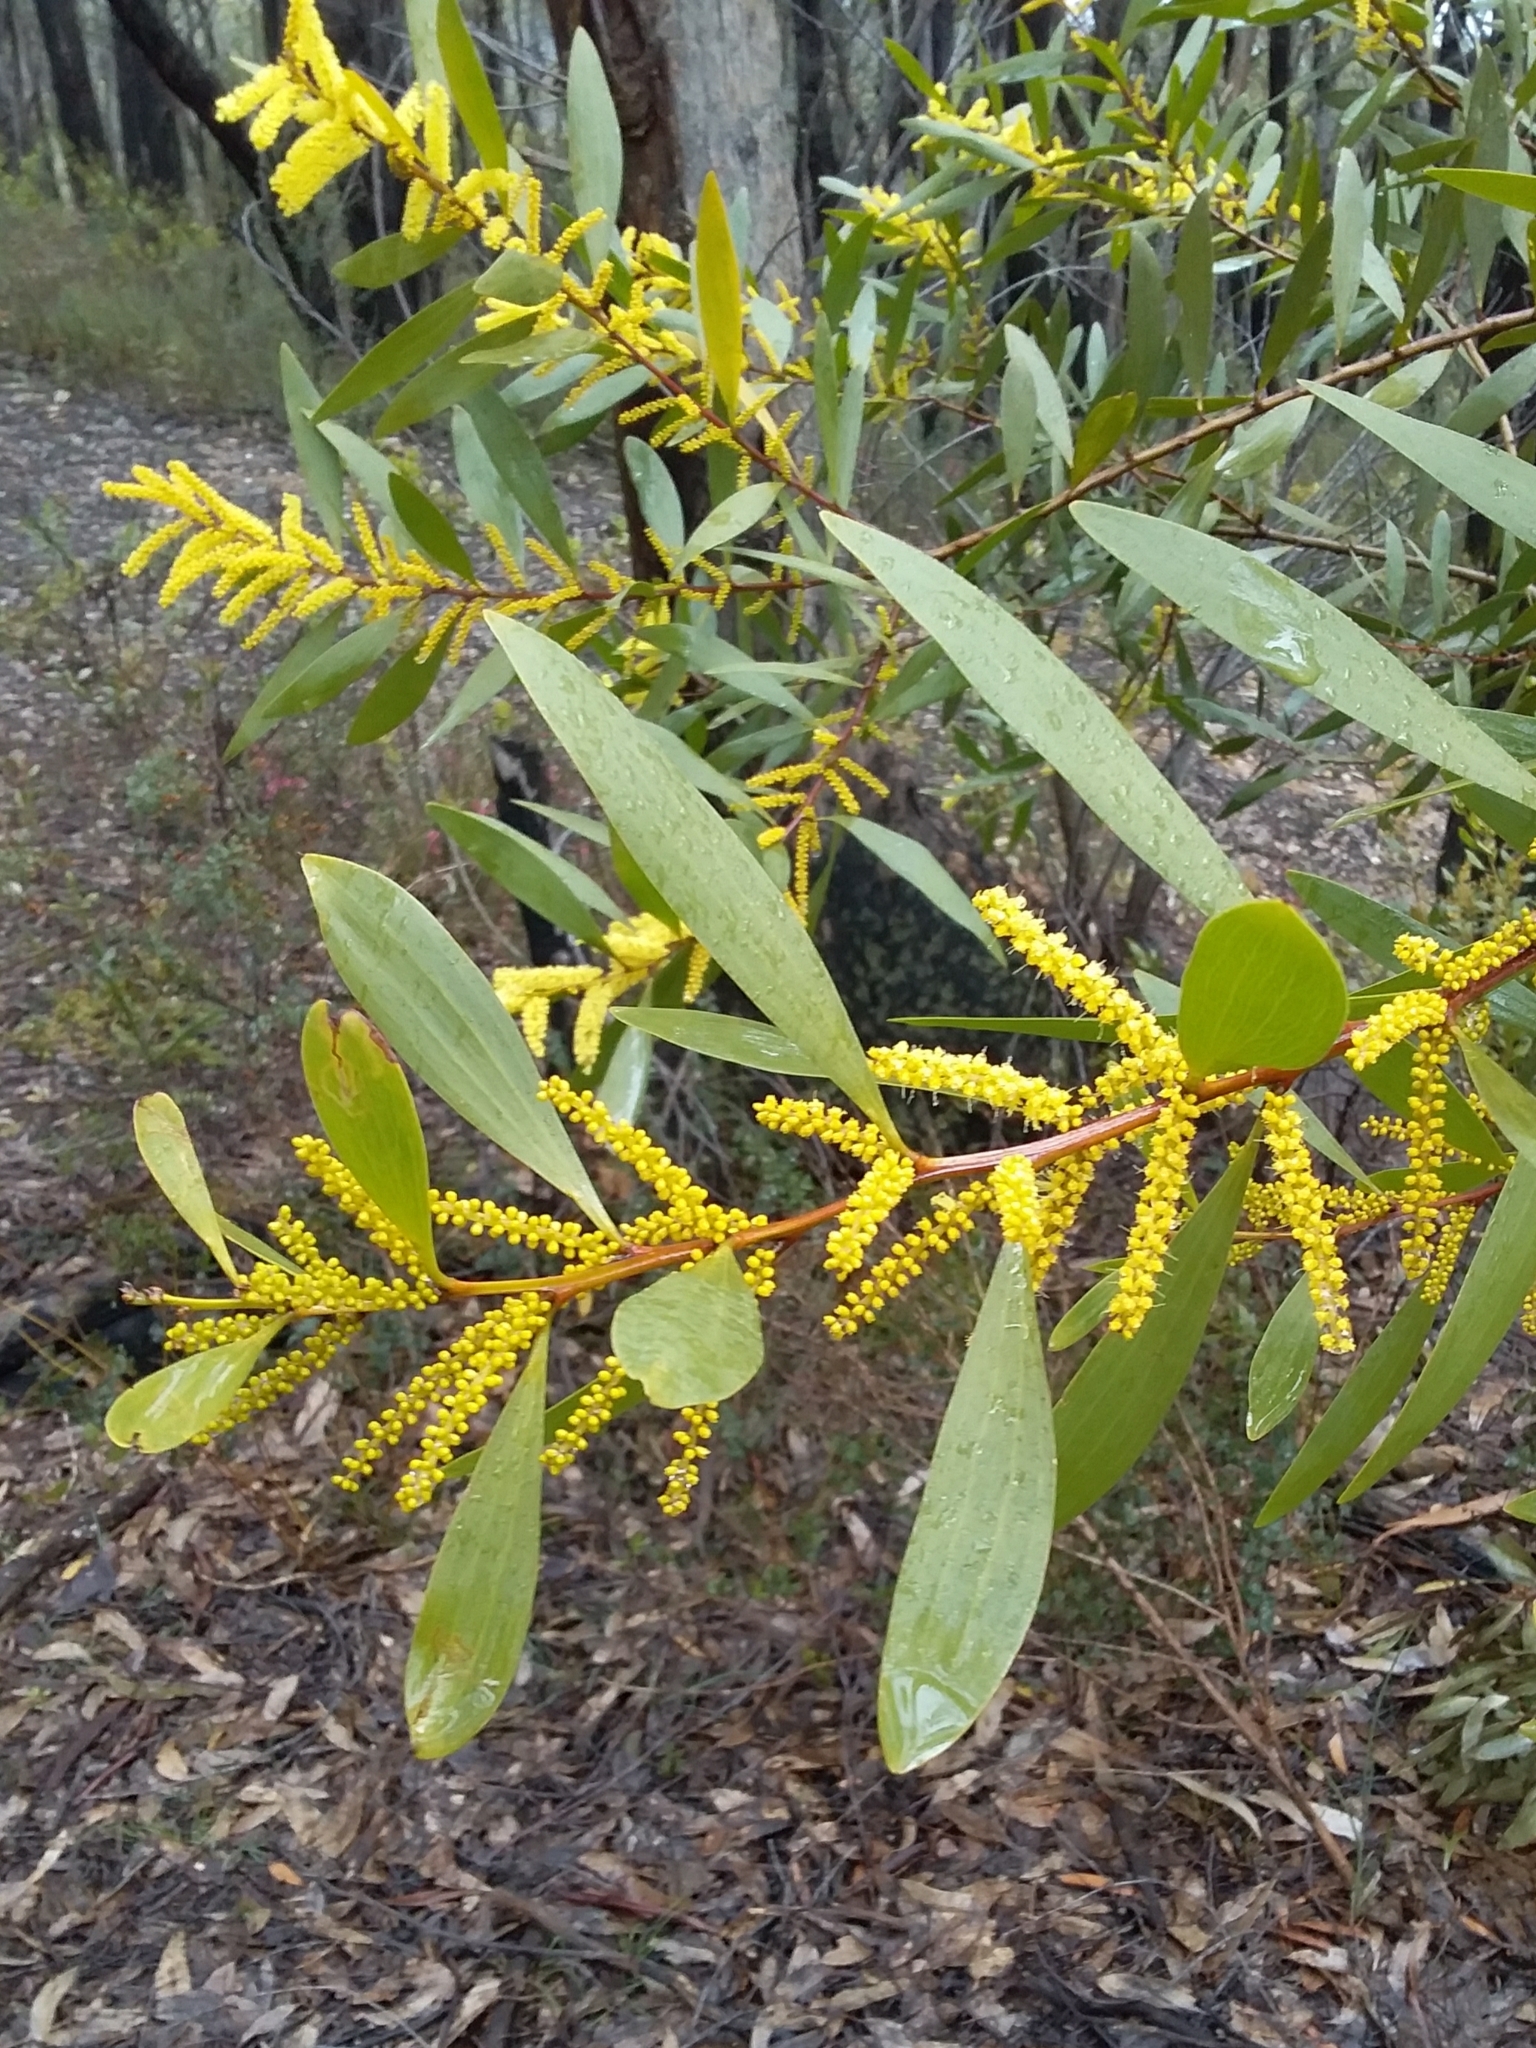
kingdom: Plantae
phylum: Tracheophyta
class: Magnoliopsida
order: Fabales
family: Fabaceae
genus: Acacia
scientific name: Acacia longifolia
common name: Sydney golden wattle
